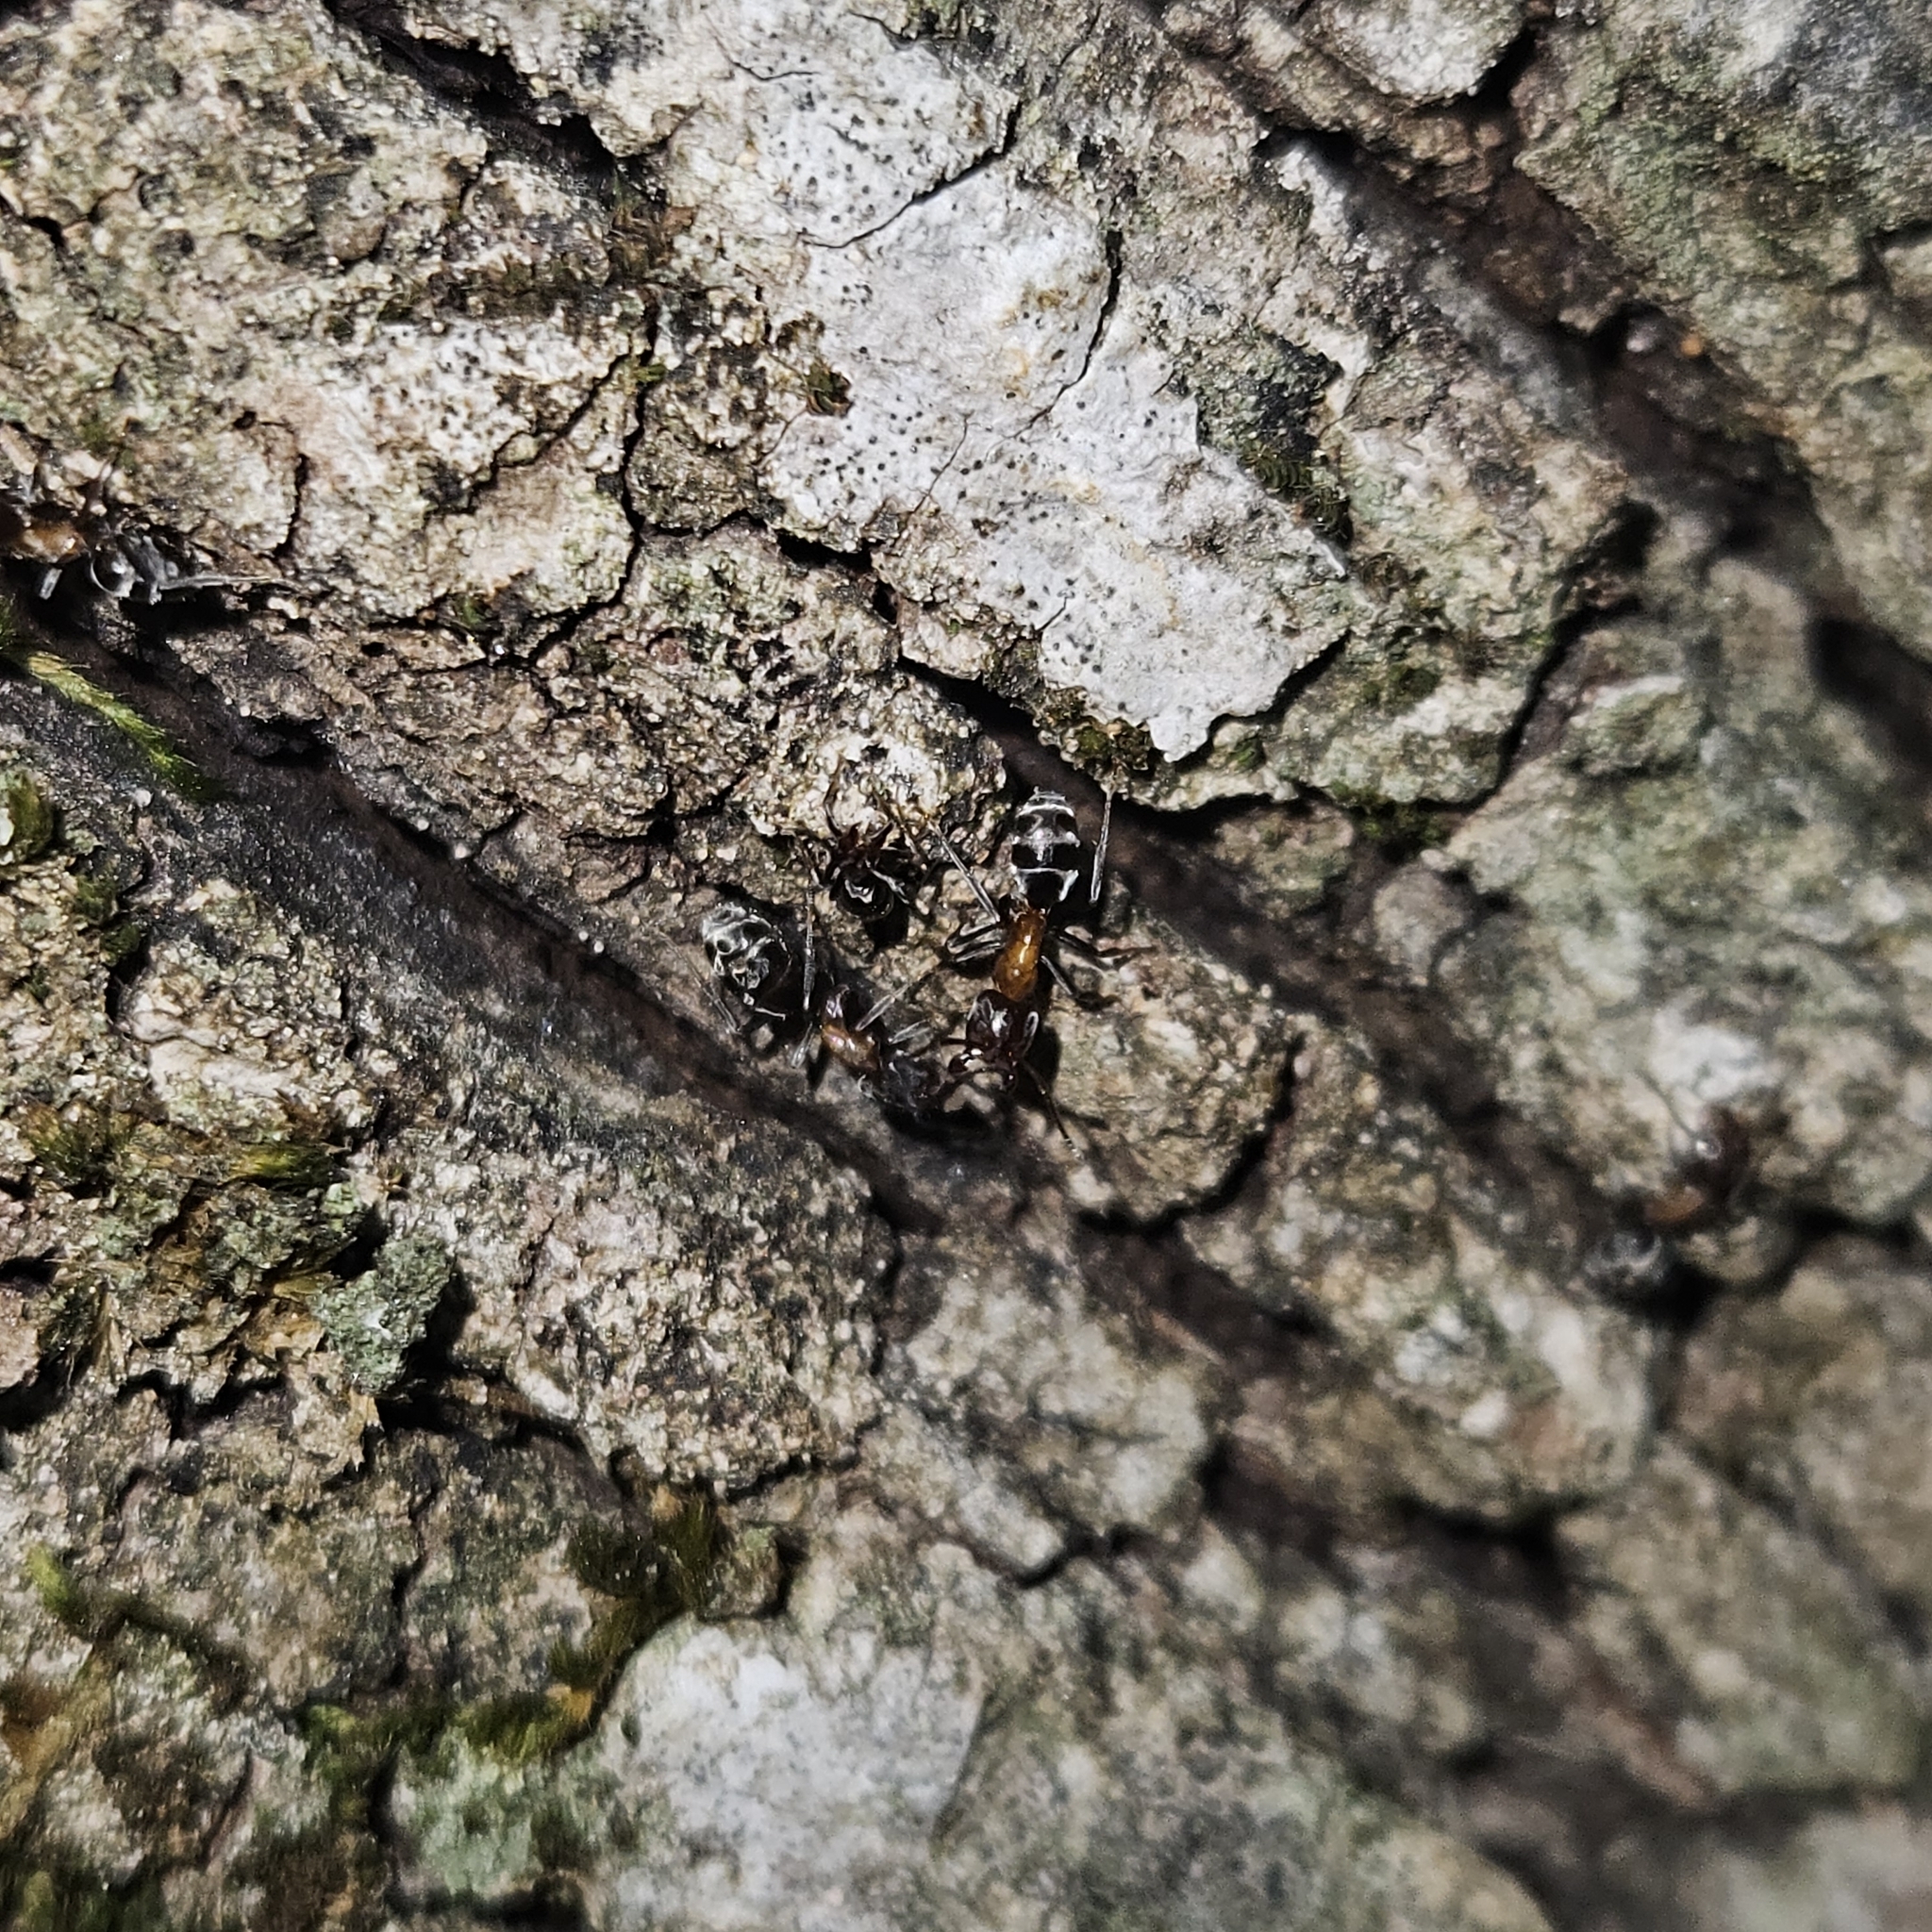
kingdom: Animalia
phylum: Arthropoda
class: Insecta
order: Hymenoptera
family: Formicidae
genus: Liometopum
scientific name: Liometopum microcephalum
